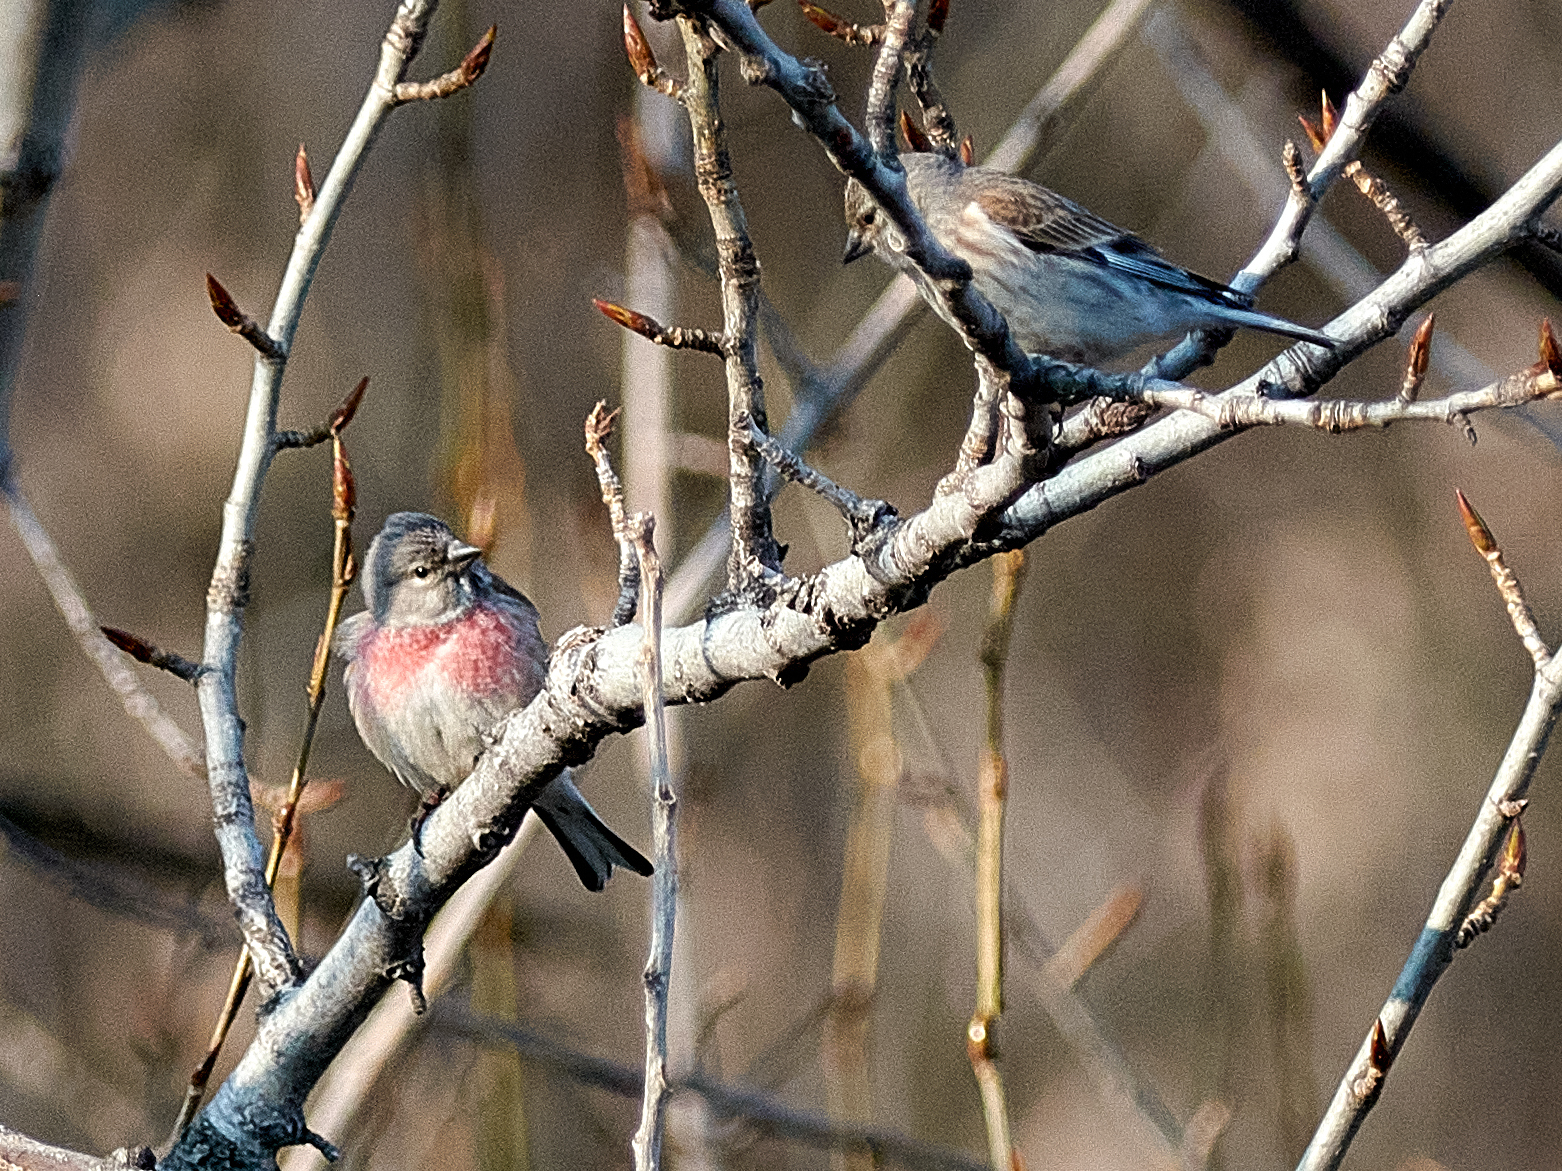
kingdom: Animalia
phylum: Chordata
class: Aves
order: Passeriformes
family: Fringillidae
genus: Linaria
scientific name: Linaria cannabina
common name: Common linnet
